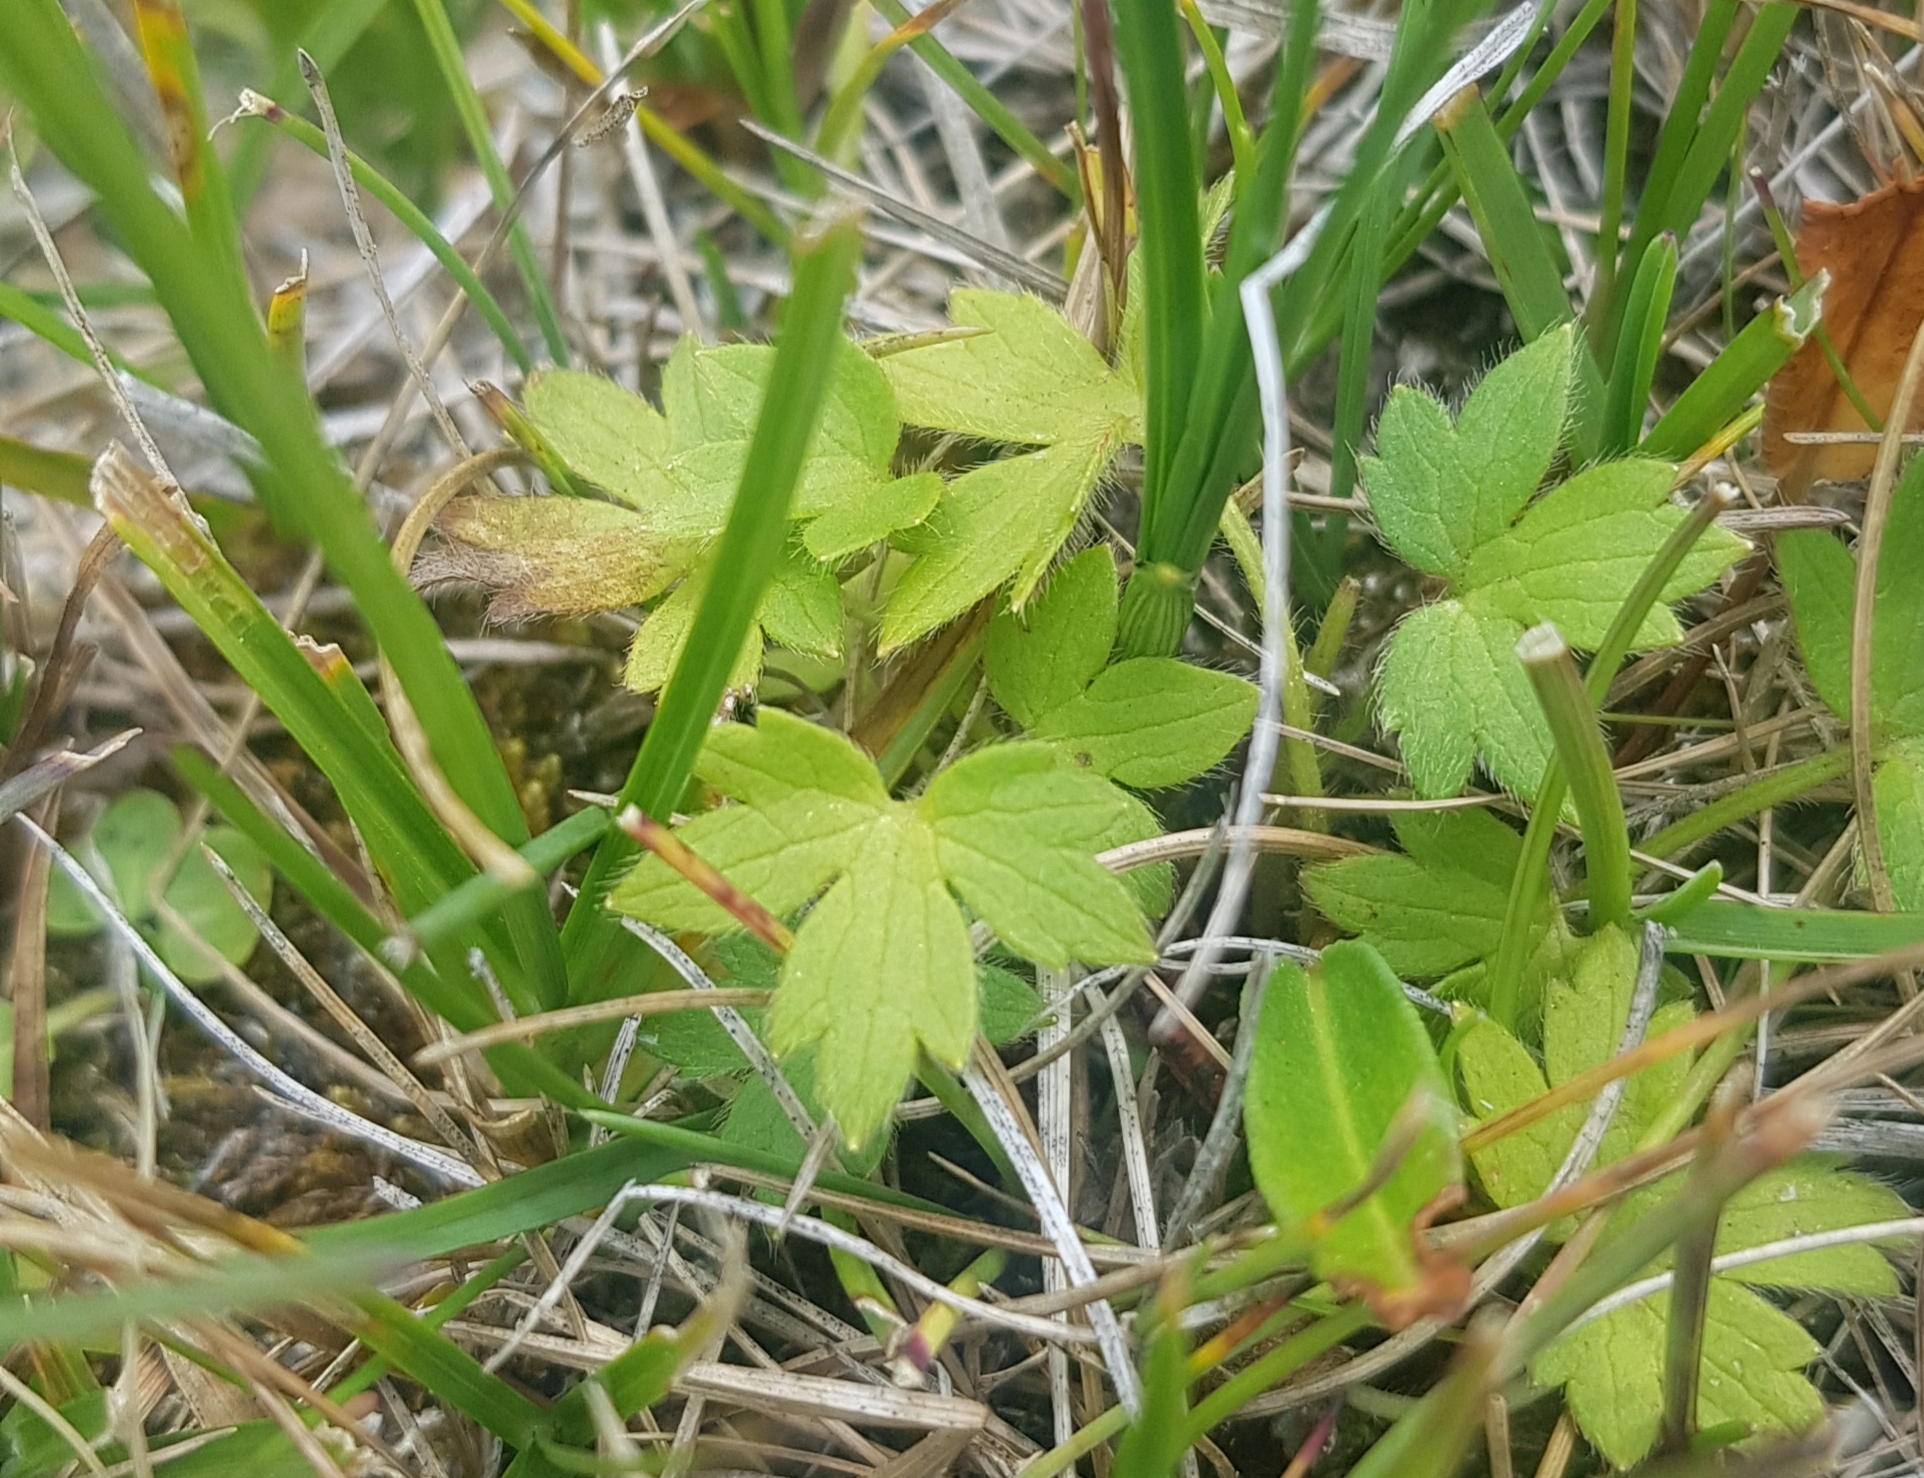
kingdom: Plantae
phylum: Tracheophyta
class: Magnoliopsida
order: Ranunculales
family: Ranunculaceae
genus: Ranunculus
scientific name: Ranunculus propinquus
